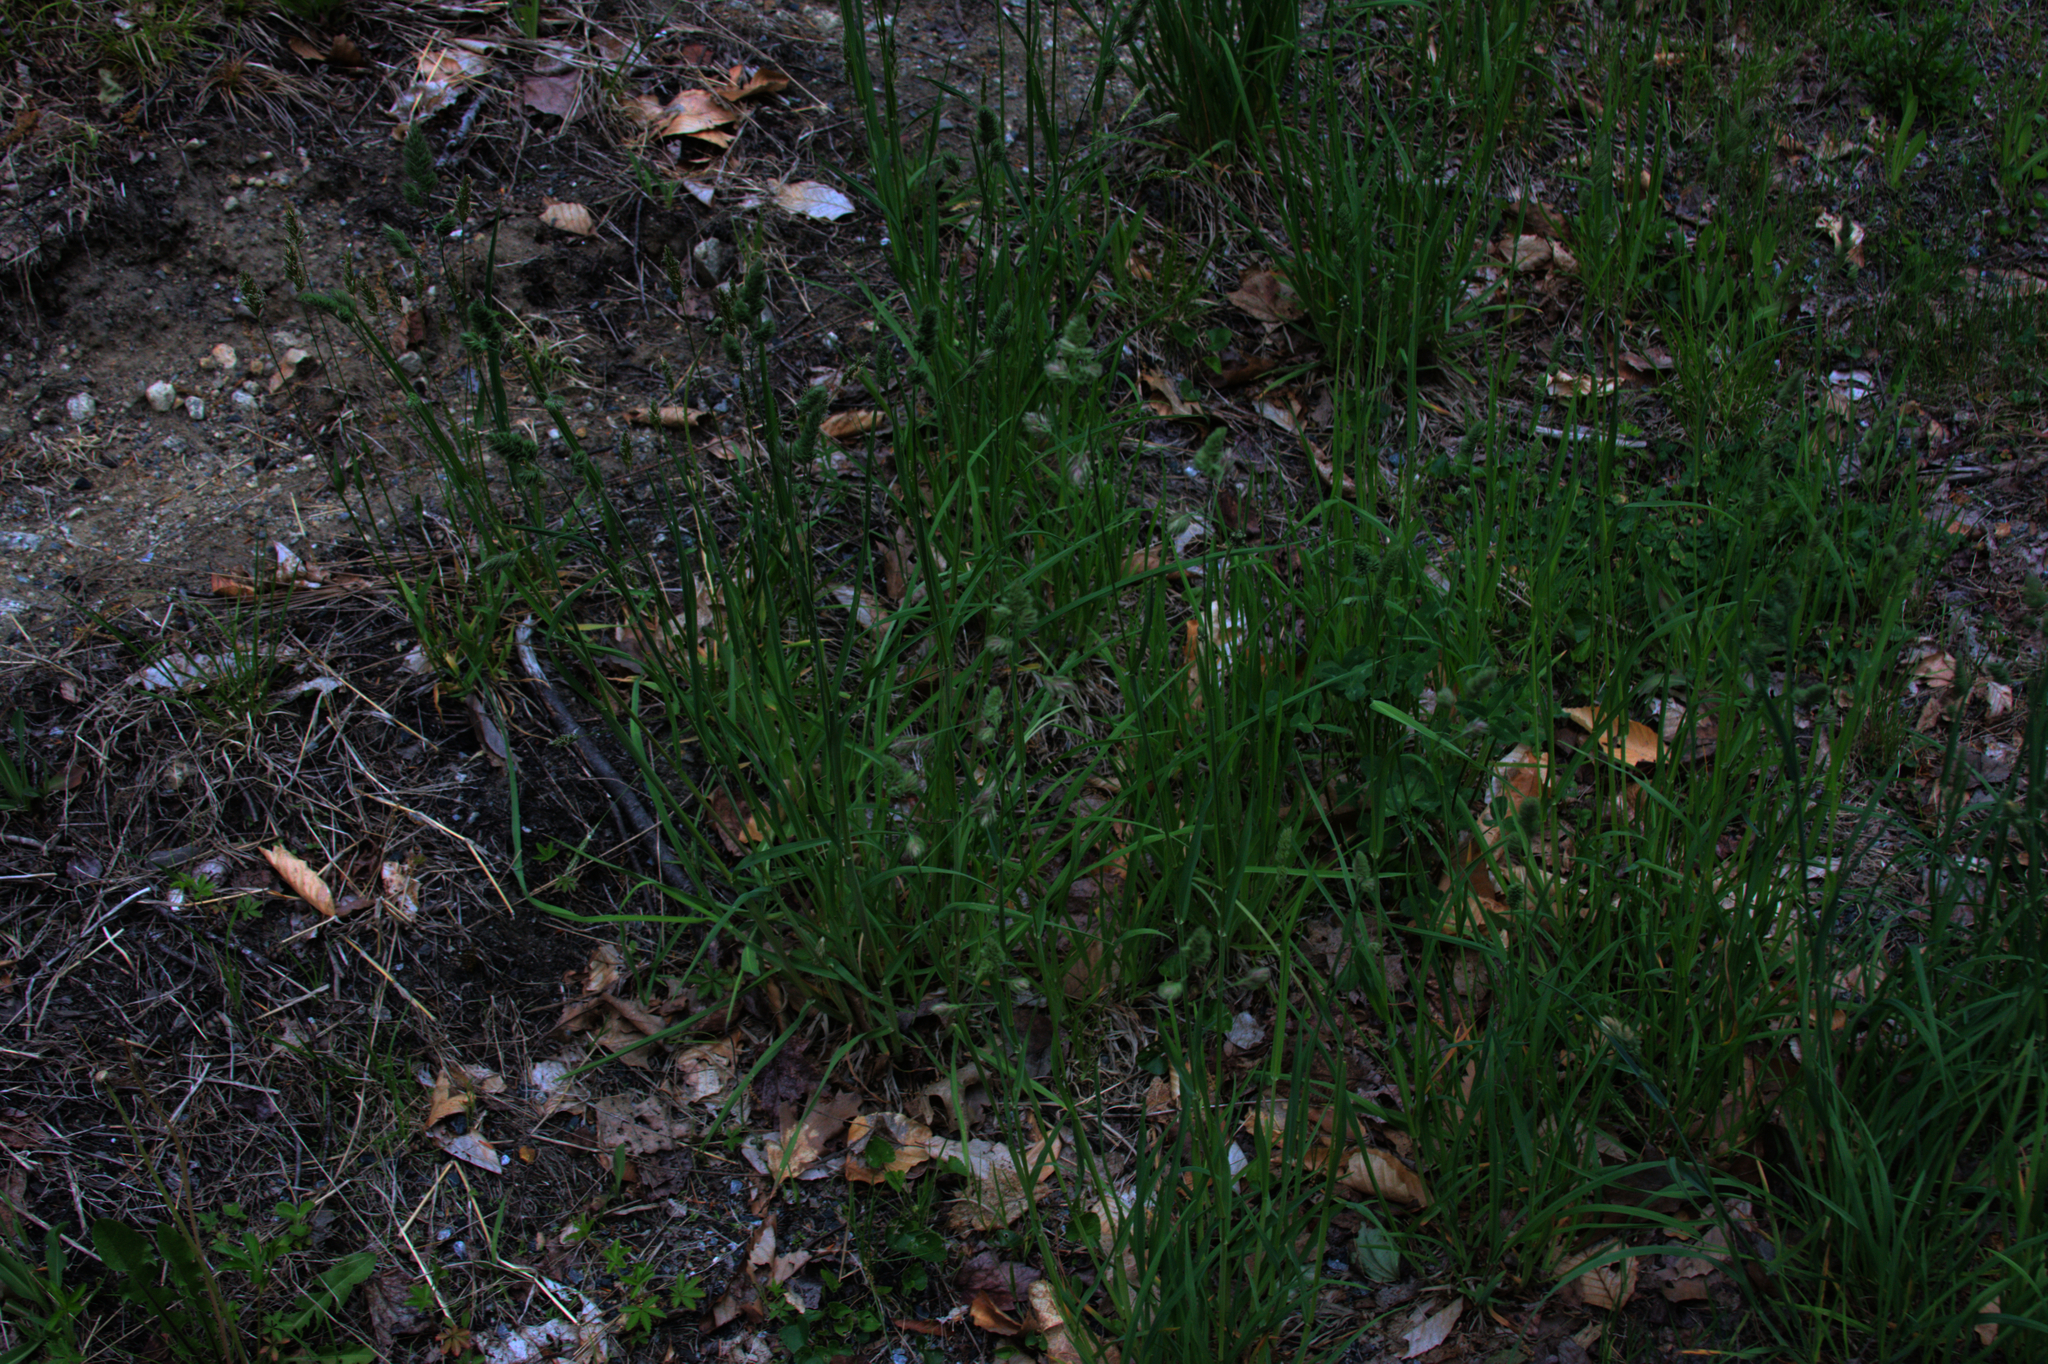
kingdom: Plantae
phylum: Tracheophyta
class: Liliopsida
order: Poales
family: Poaceae
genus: Dactylis
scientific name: Dactylis glomerata
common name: Orchardgrass
